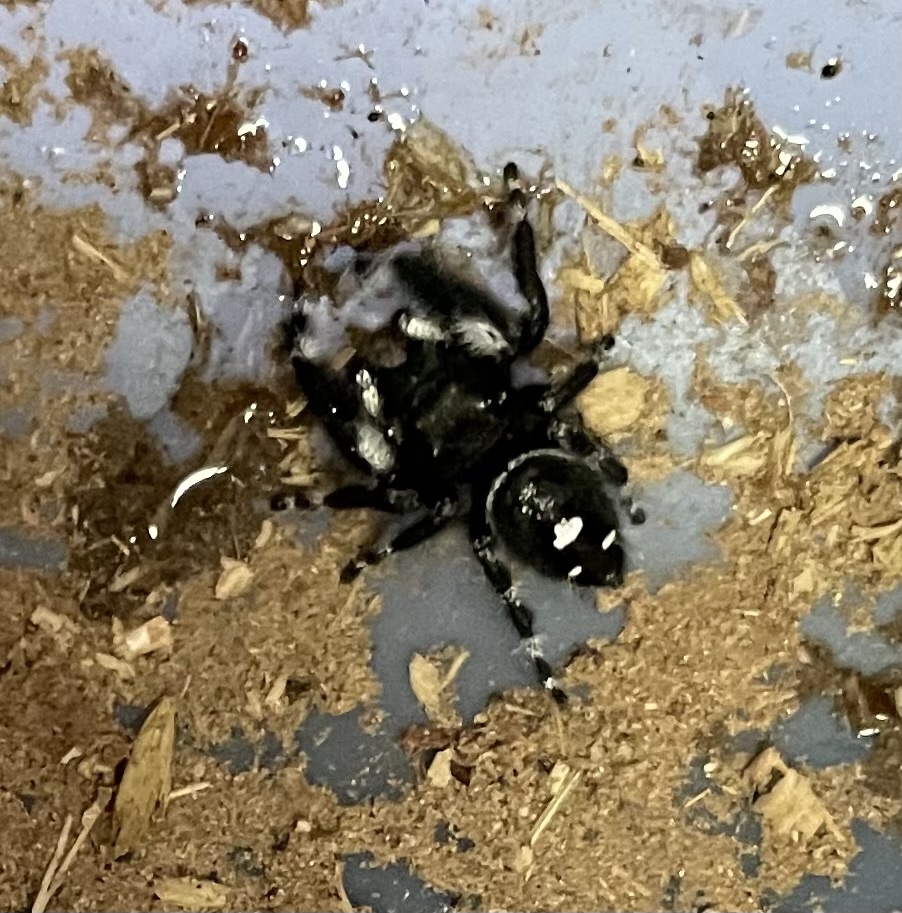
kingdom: Animalia
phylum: Arthropoda
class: Arachnida
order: Araneae
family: Salticidae
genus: Phidippus
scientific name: Phidippus audax
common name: Bold jumper
